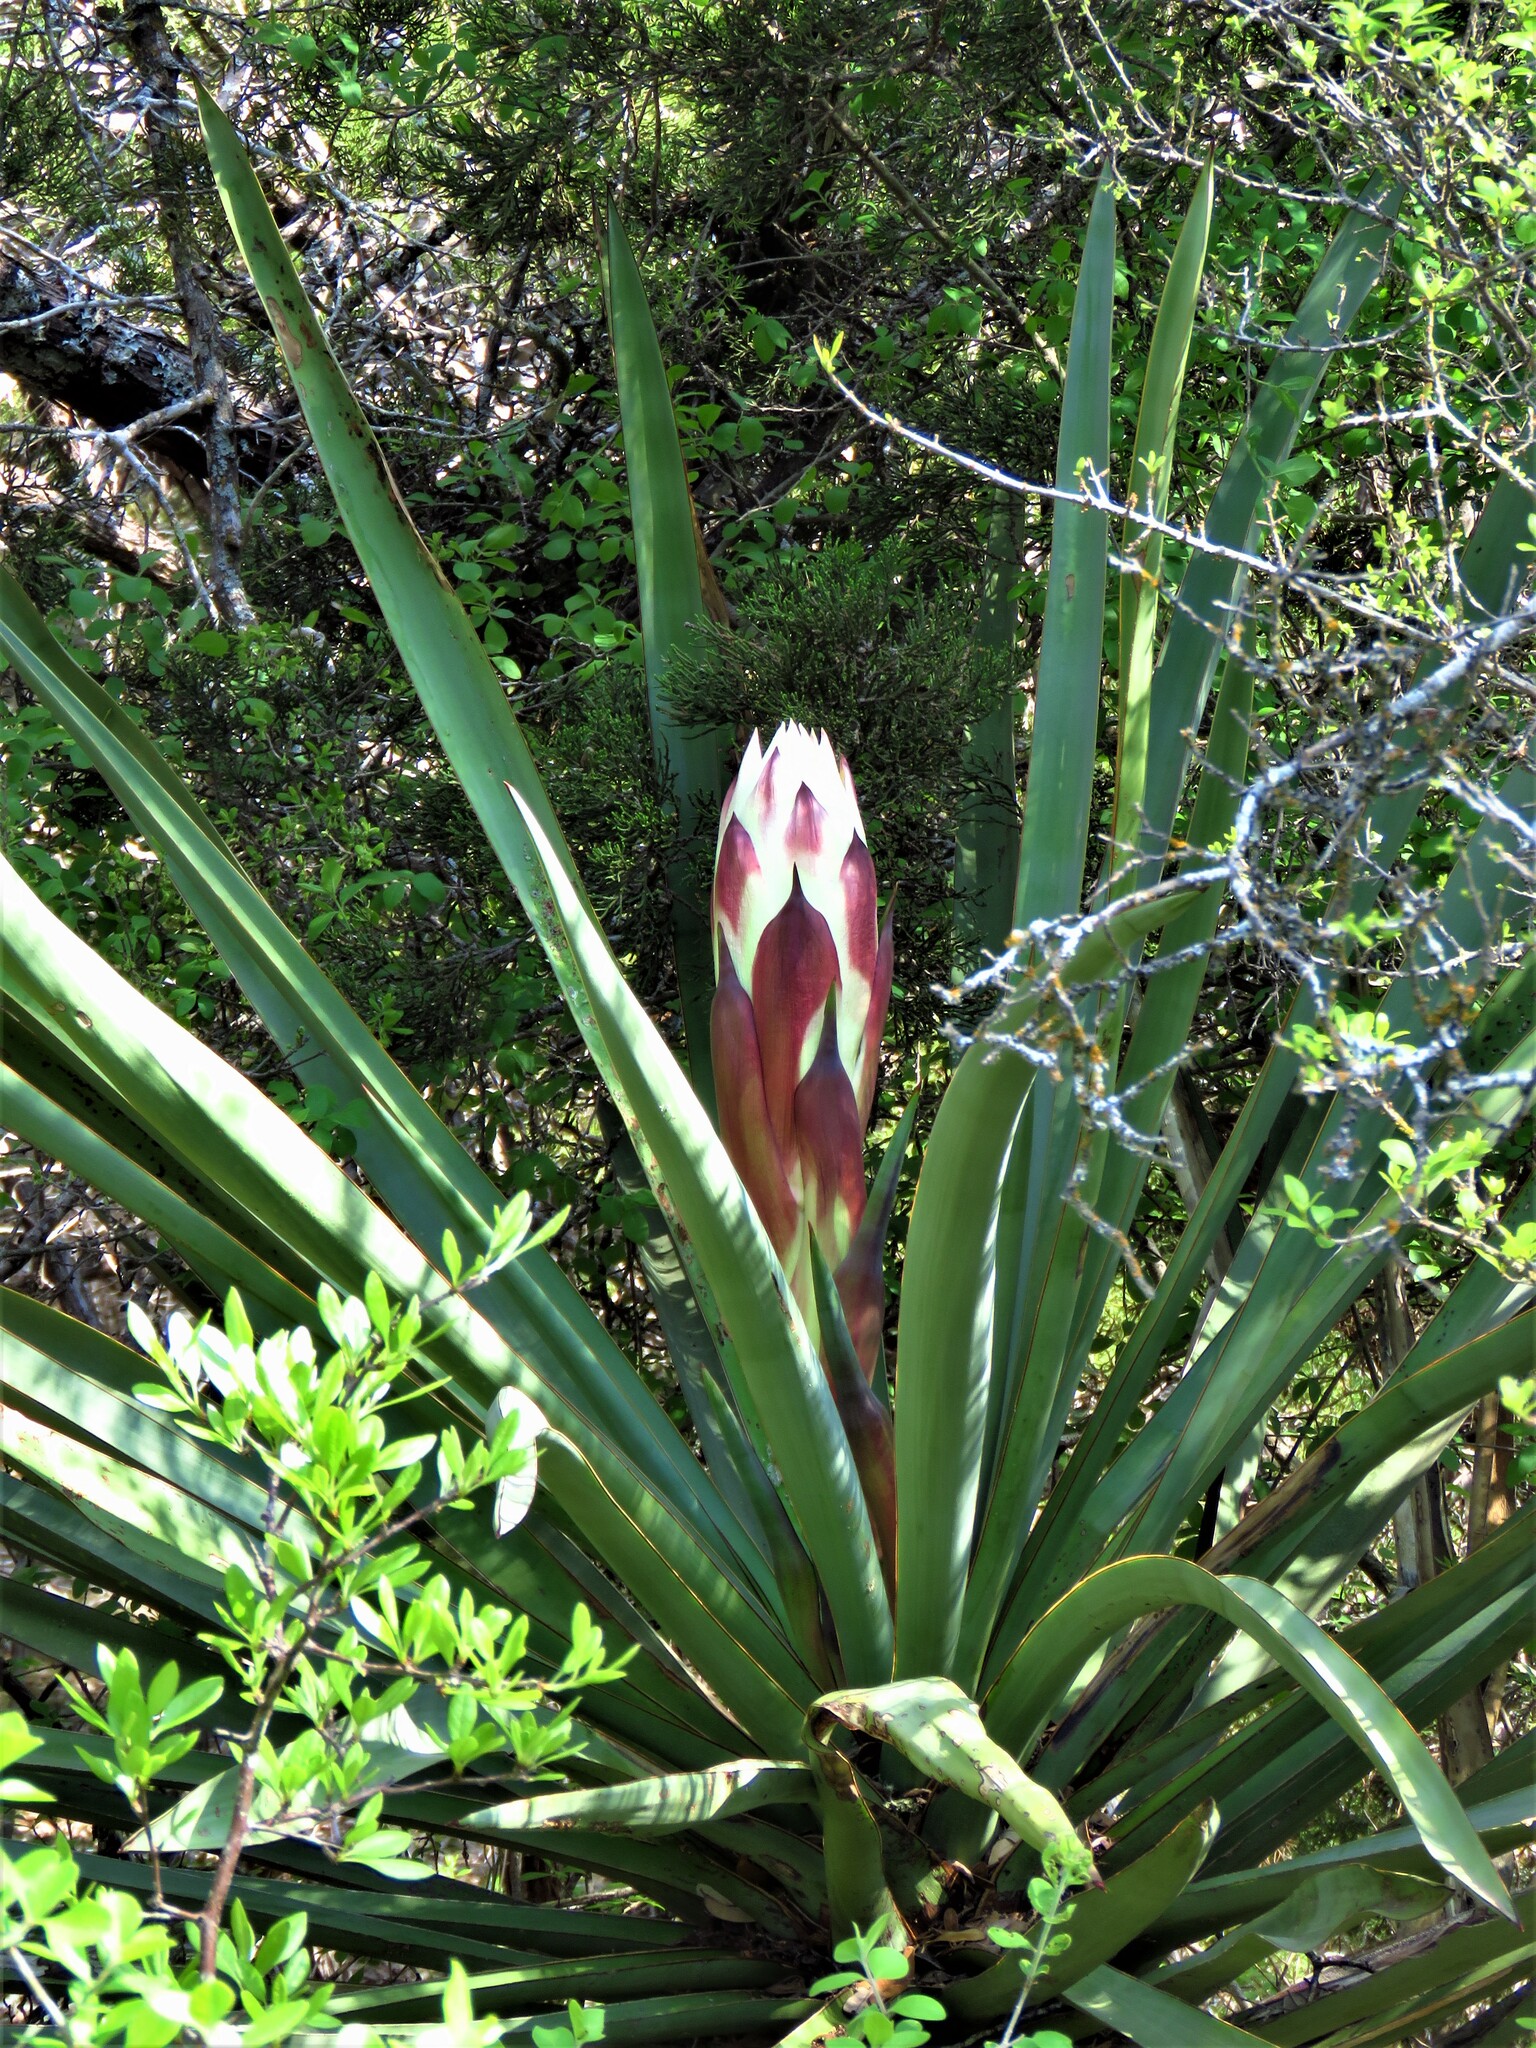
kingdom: Plantae
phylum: Tracheophyta
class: Liliopsida
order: Asparagales
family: Asparagaceae
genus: Yucca
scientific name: Yucca treculiana
